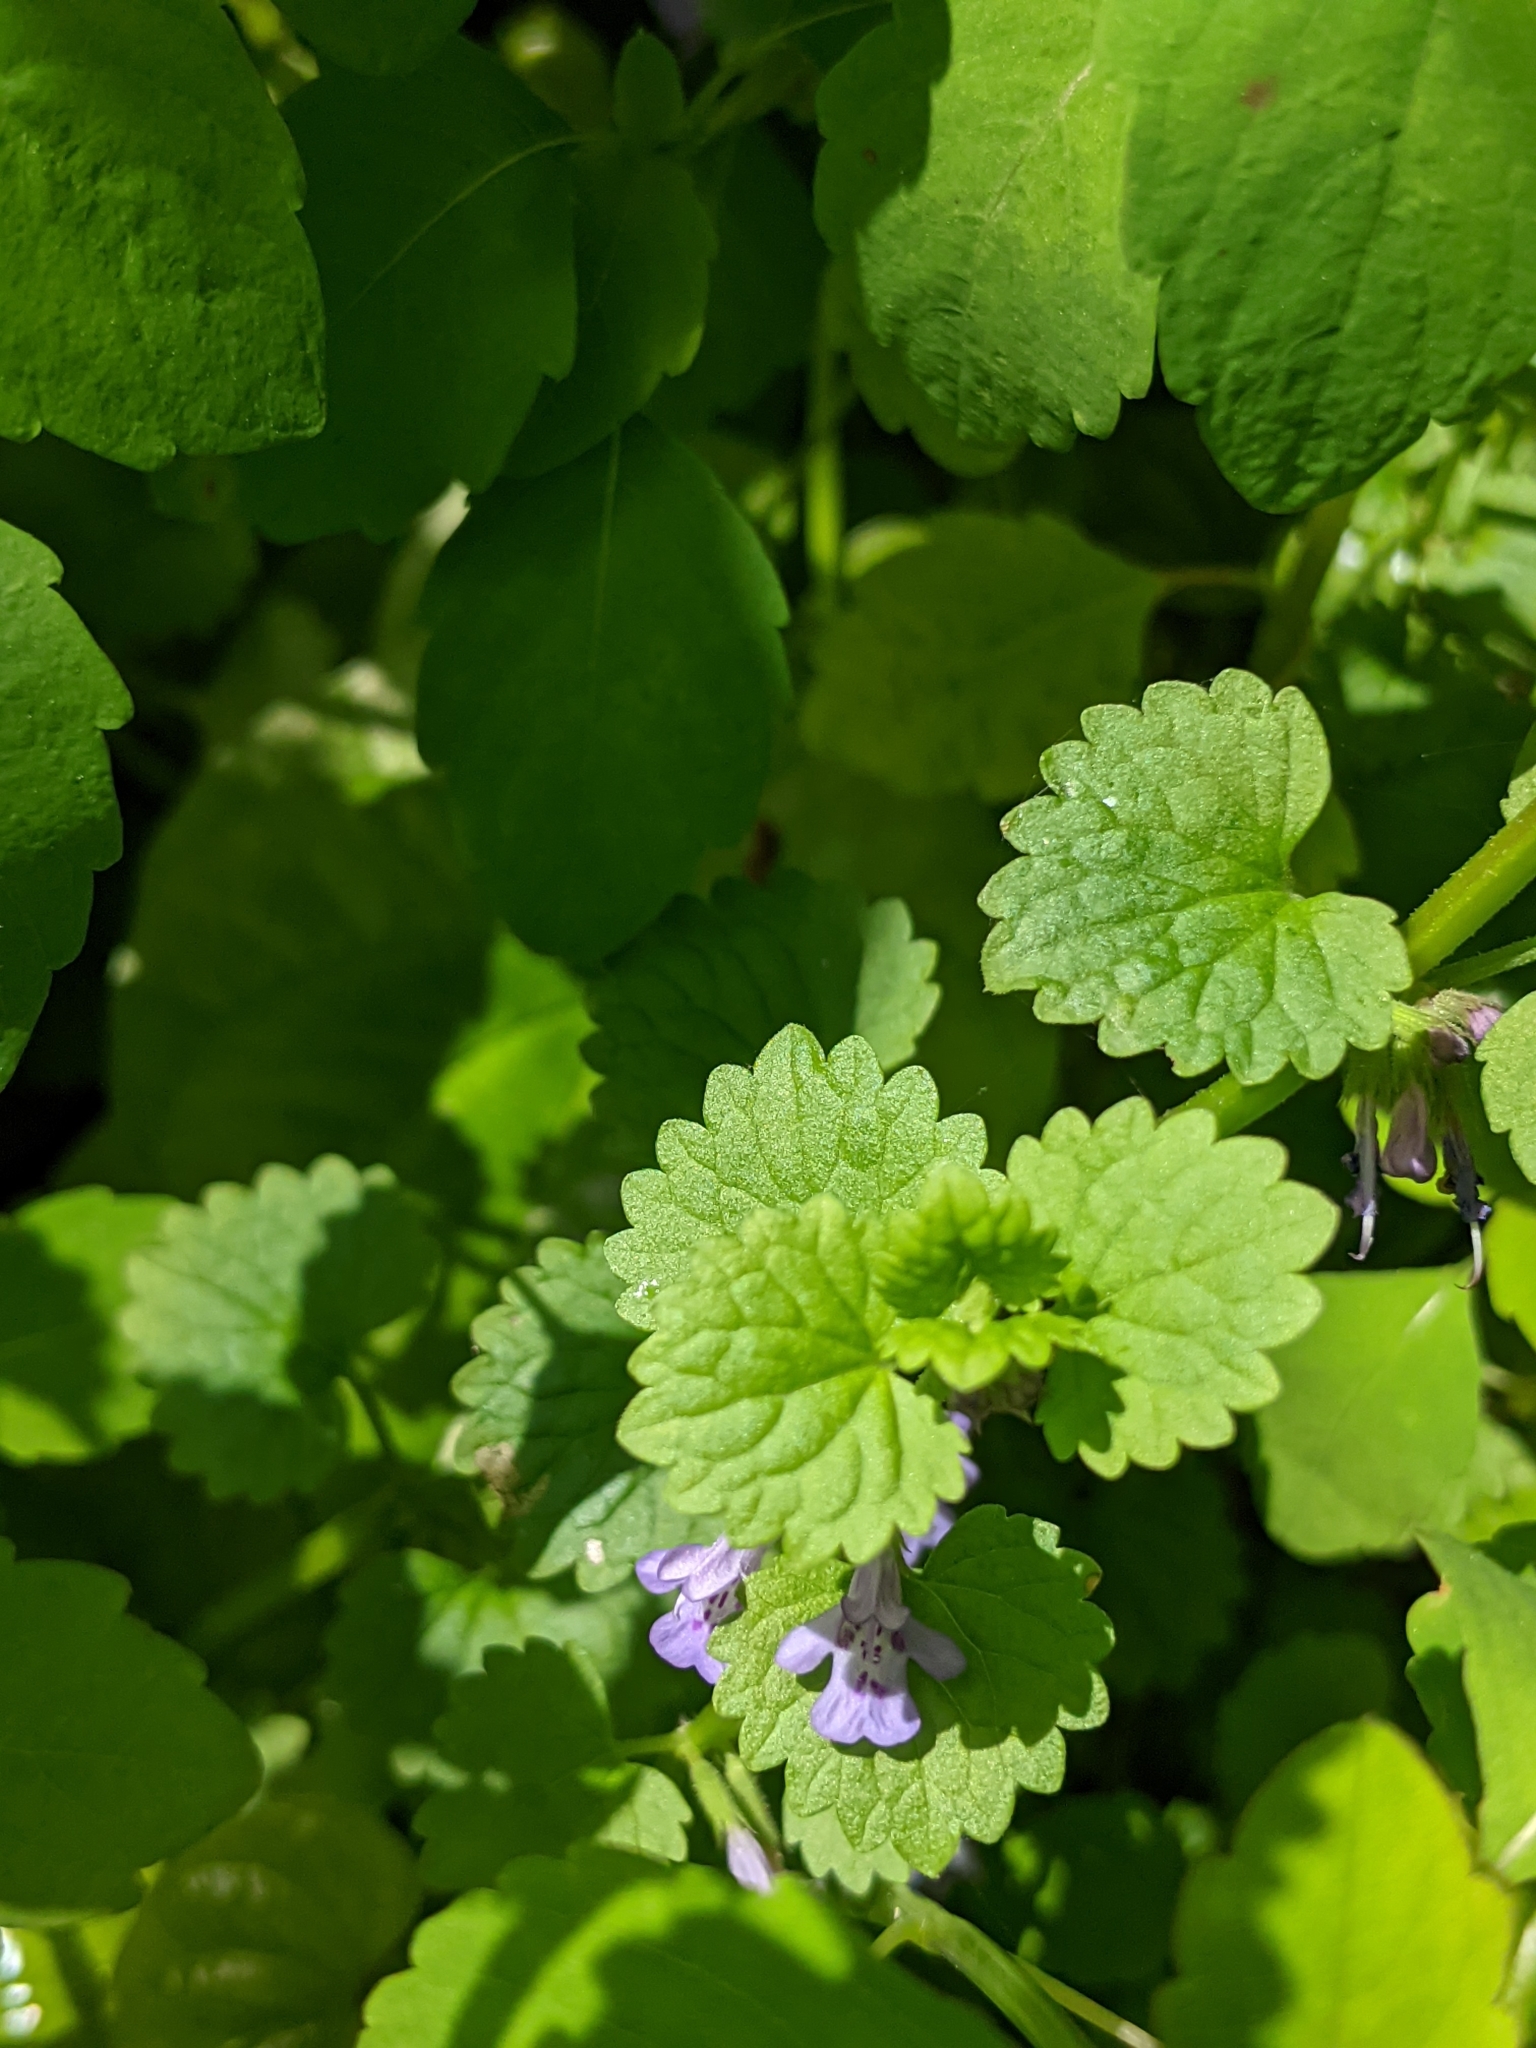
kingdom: Plantae
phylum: Tracheophyta
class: Magnoliopsida
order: Ranunculales
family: Ranunculaceae
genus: Aquilegia
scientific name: Aquilegia canadensis
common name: American columbine
